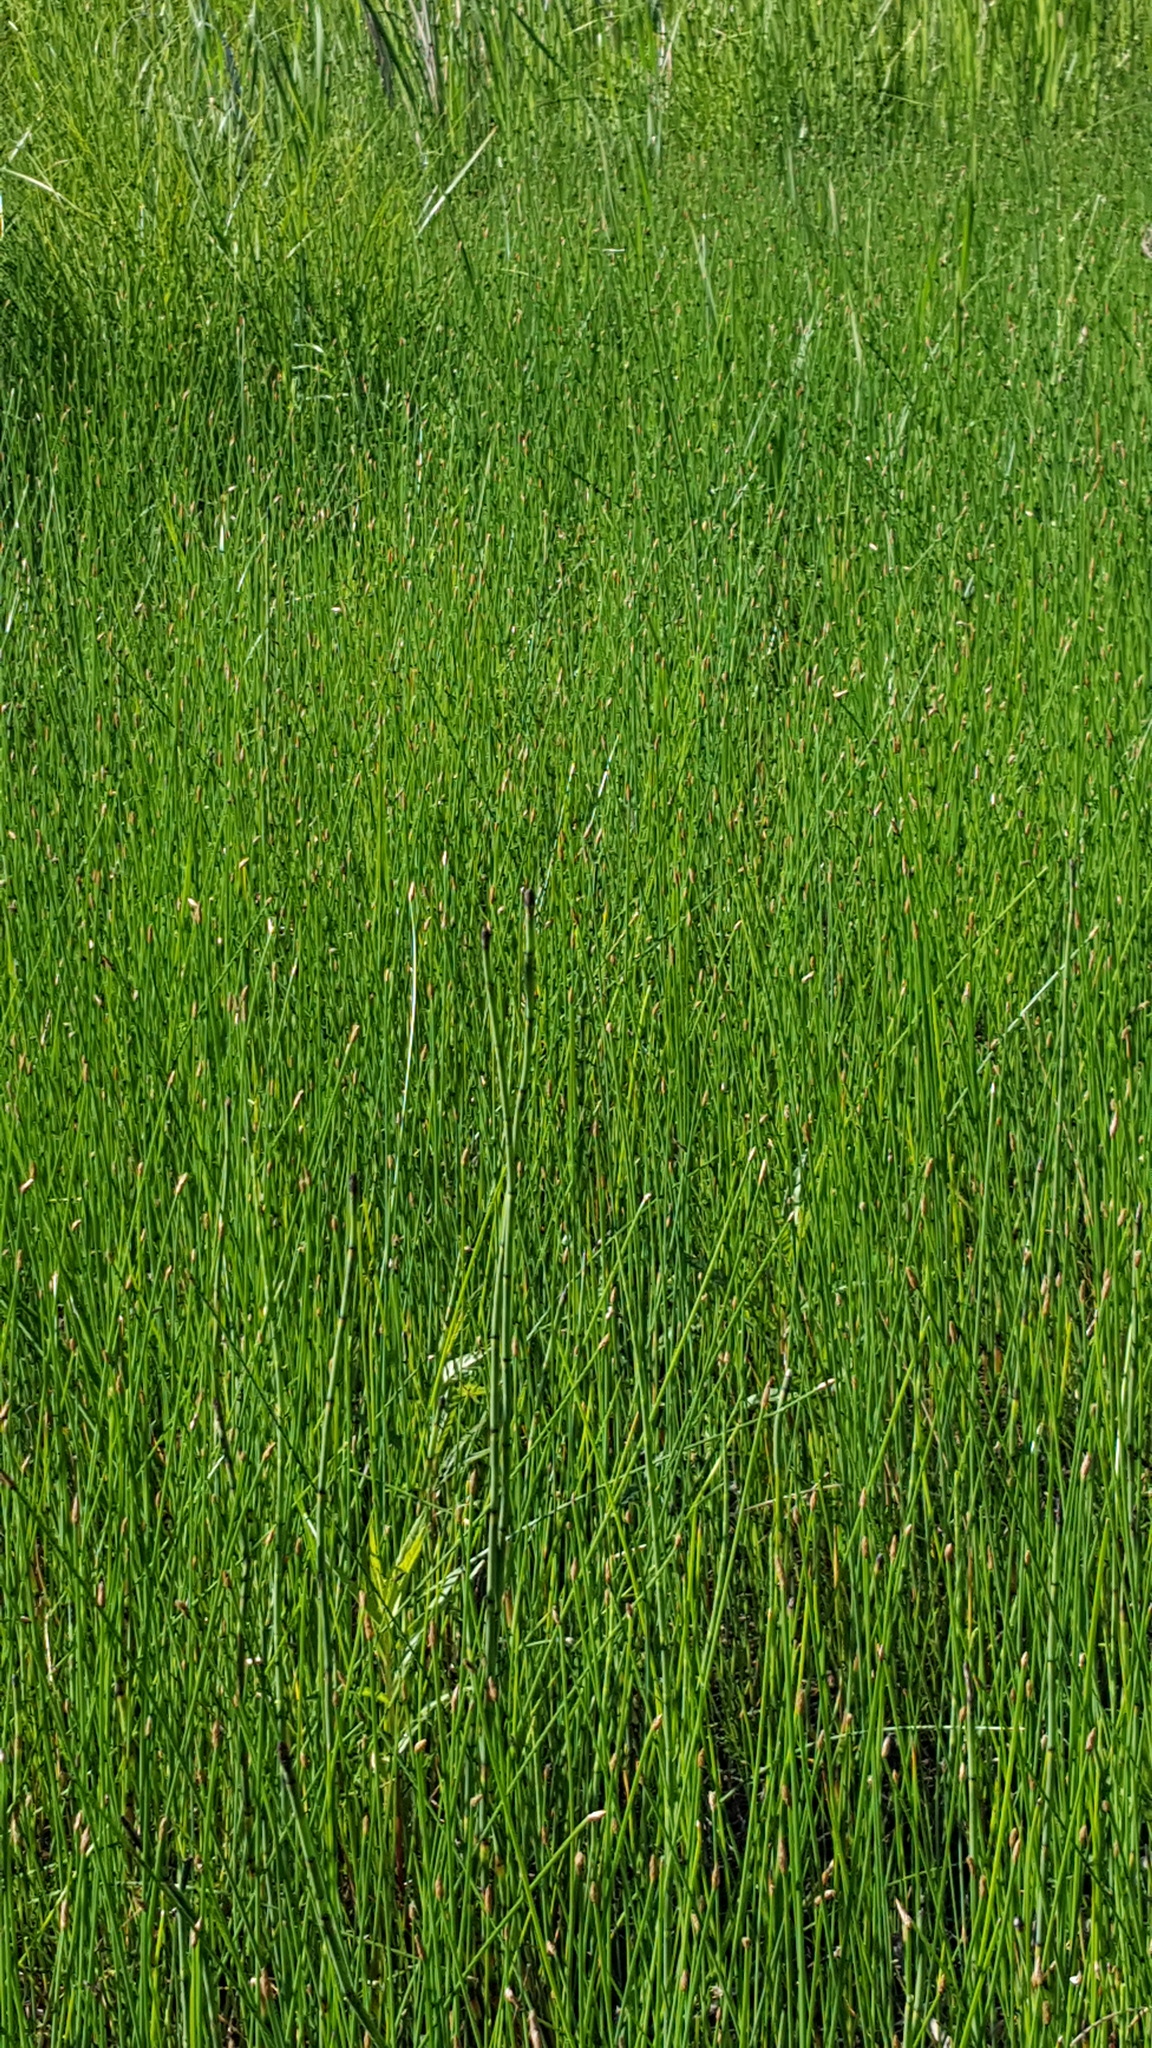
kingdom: Plantae
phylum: Tracheophyta
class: Liliopsida
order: Poales
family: Cyperaceae
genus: Eleocharis
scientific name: Eleocharis palustris
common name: Common spike-rush
